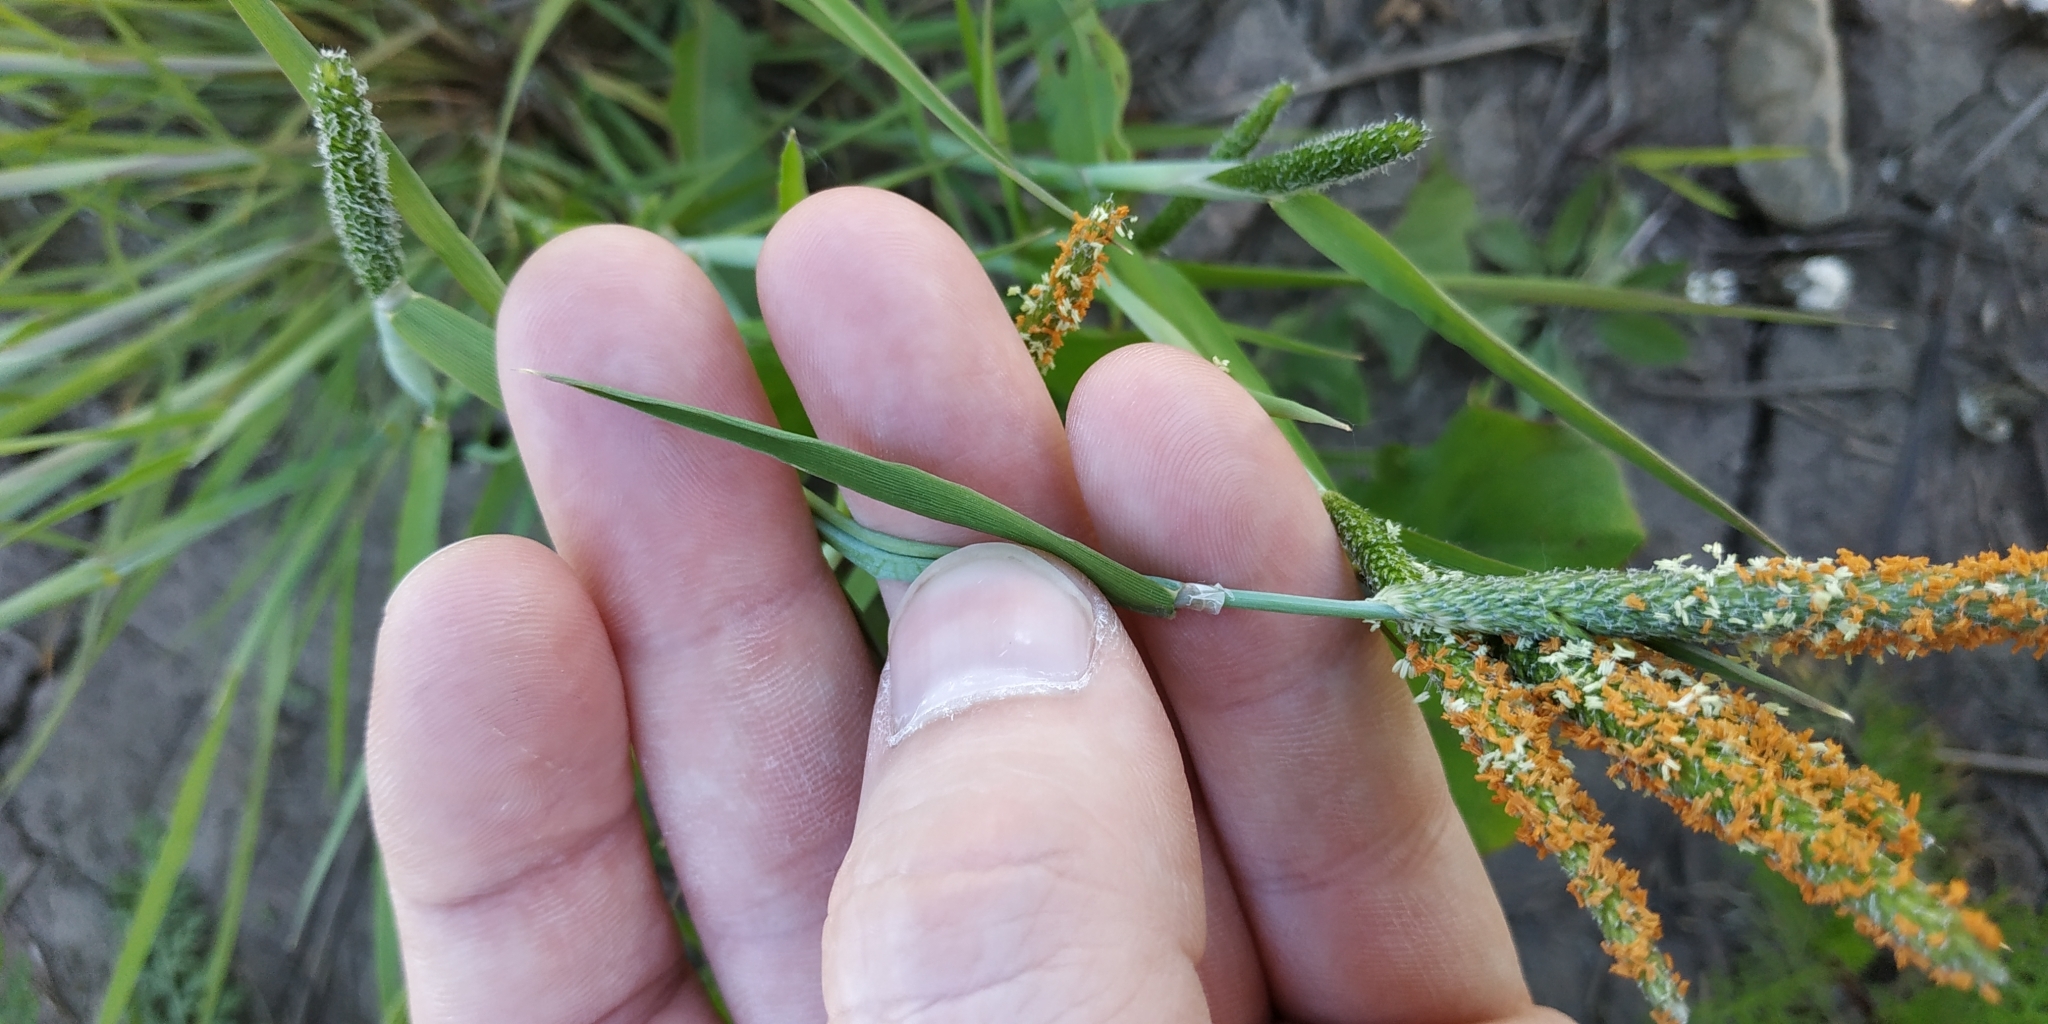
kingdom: Plantae
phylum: Tracheophyta
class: Liliopsida
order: Poales
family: Poaceae
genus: Alopecurus
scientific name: Alopecurus aequalis
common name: Orange foxtail
